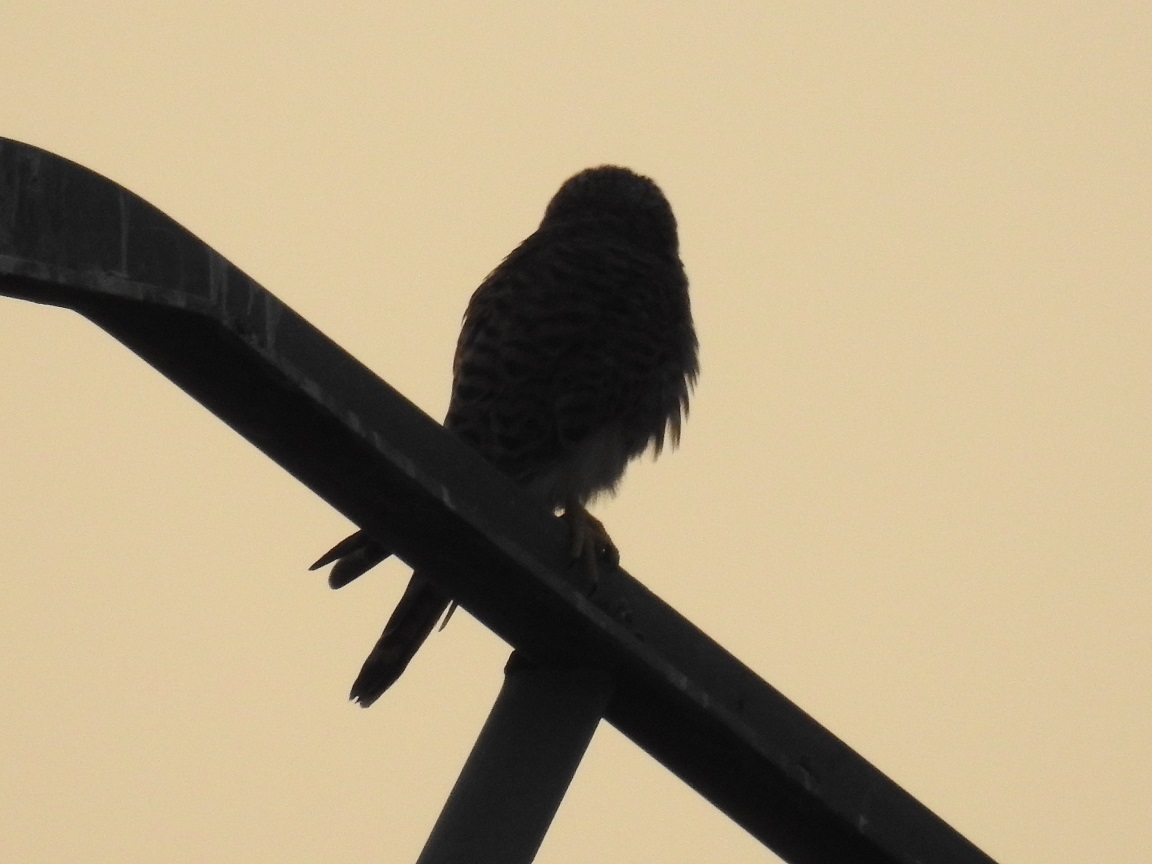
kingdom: Animalia
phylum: Chordata
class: Aves
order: Falconiformes
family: Falconidae
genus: Falco
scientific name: Falco tinnunculus
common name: Common kestrel
